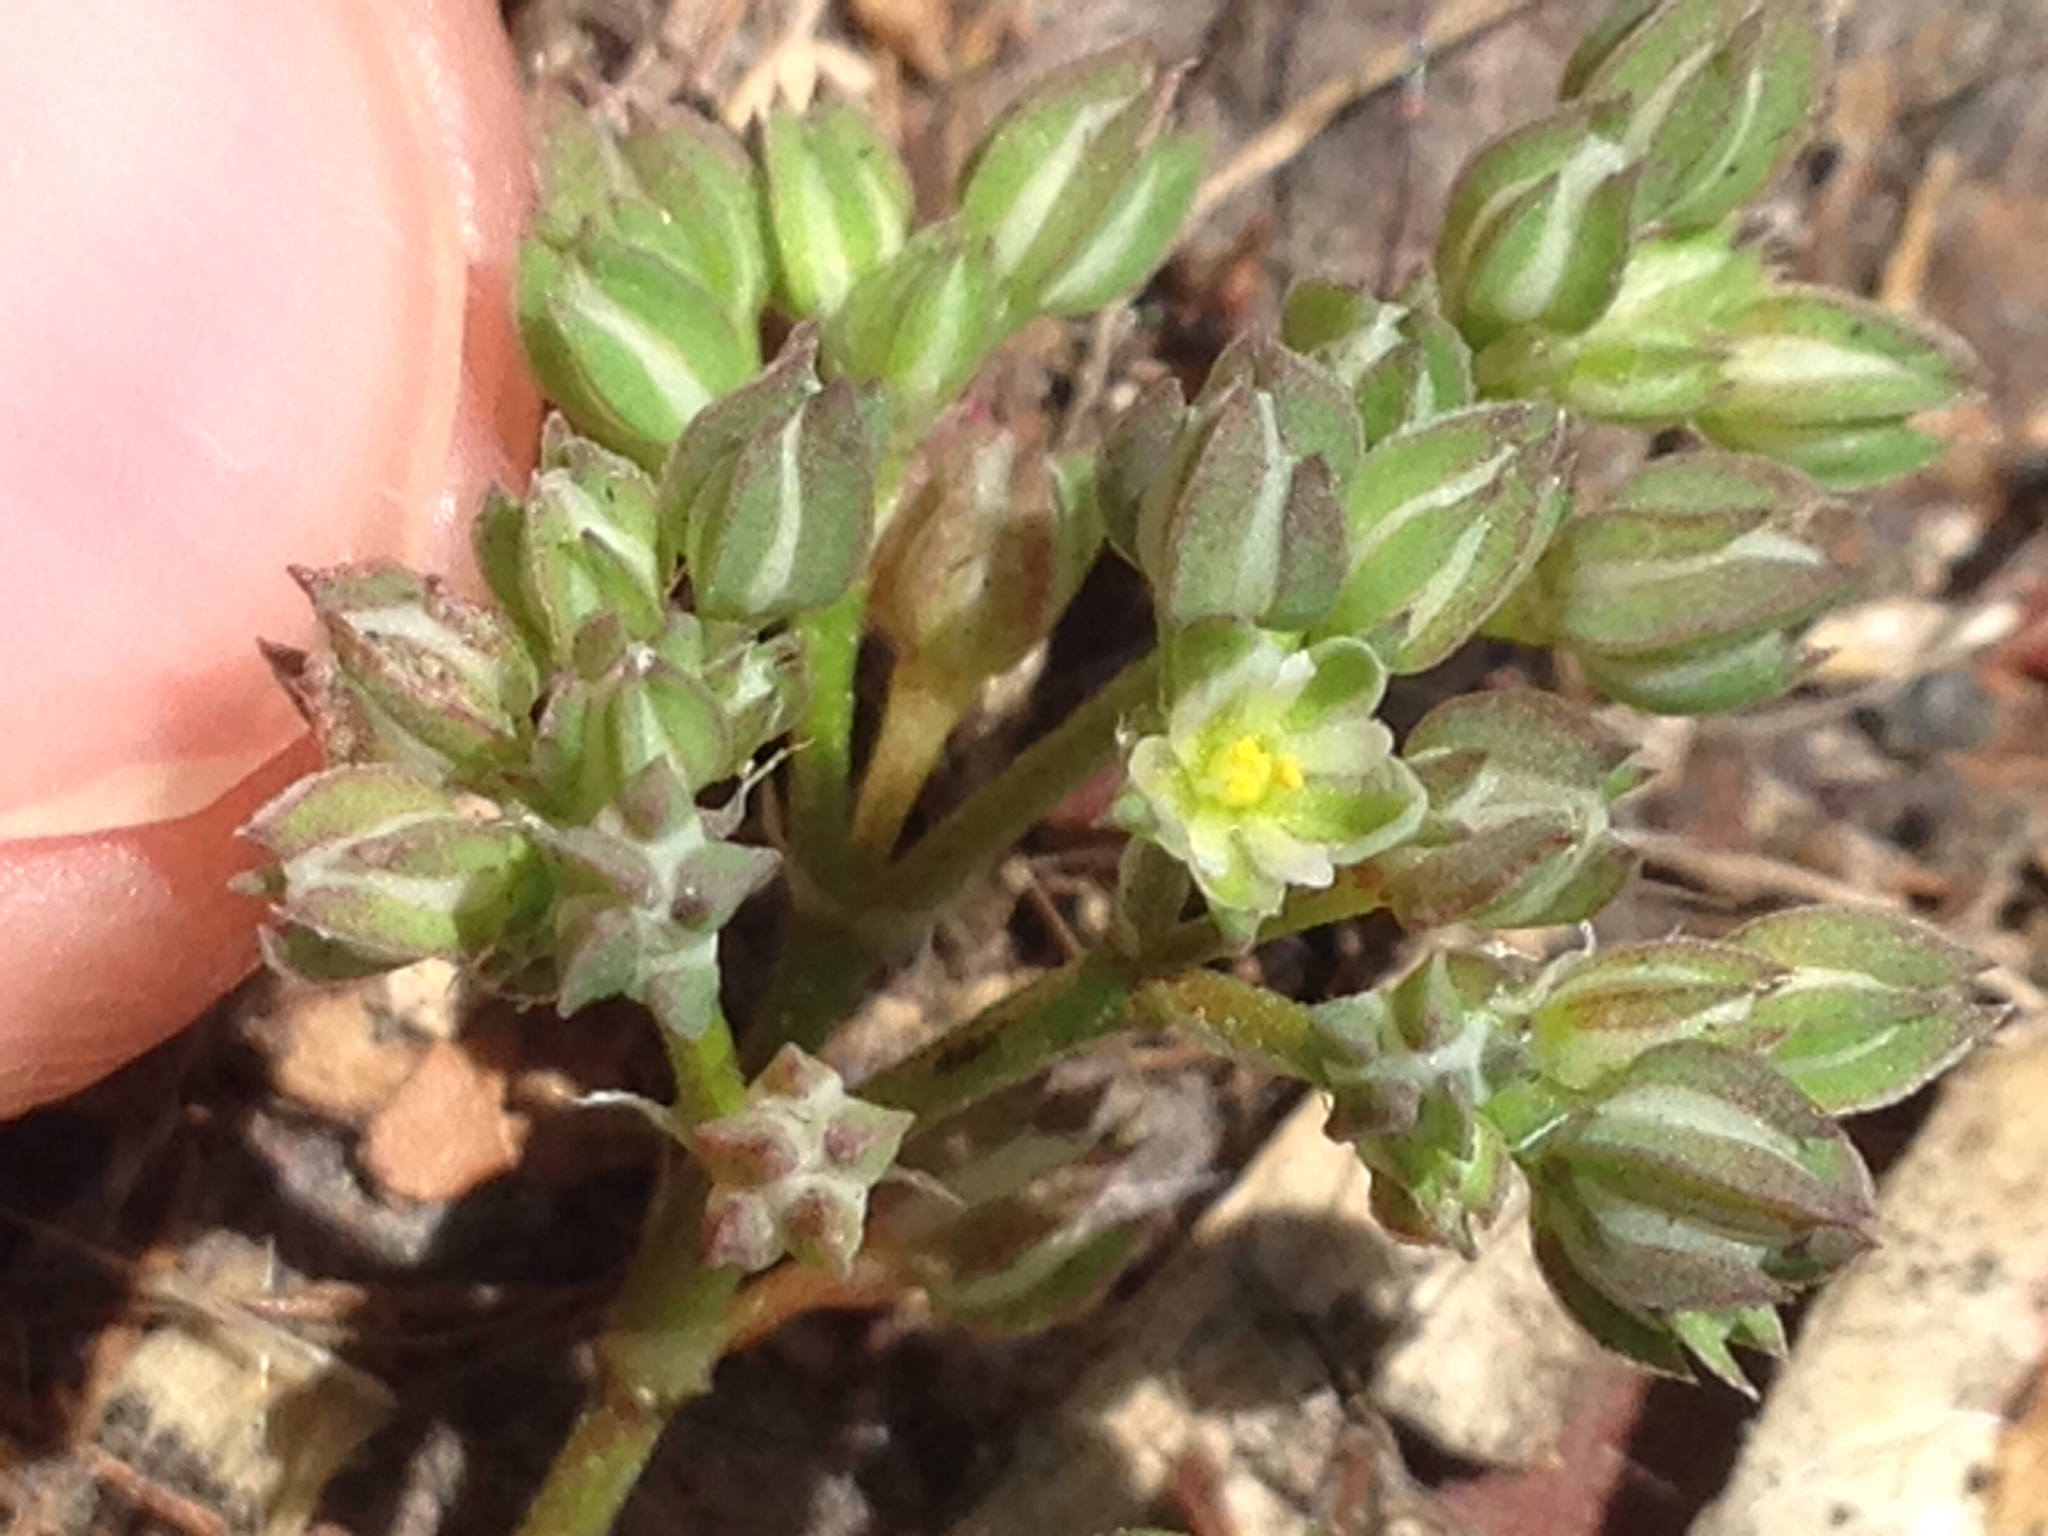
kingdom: Plantae
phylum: Tracheophyta
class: Magnoliopsida
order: Caryophyllales
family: Caryophyllaceae
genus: Polycarpon
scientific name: Polycarpon tetraphyllum
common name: Four-leaved all-seed
